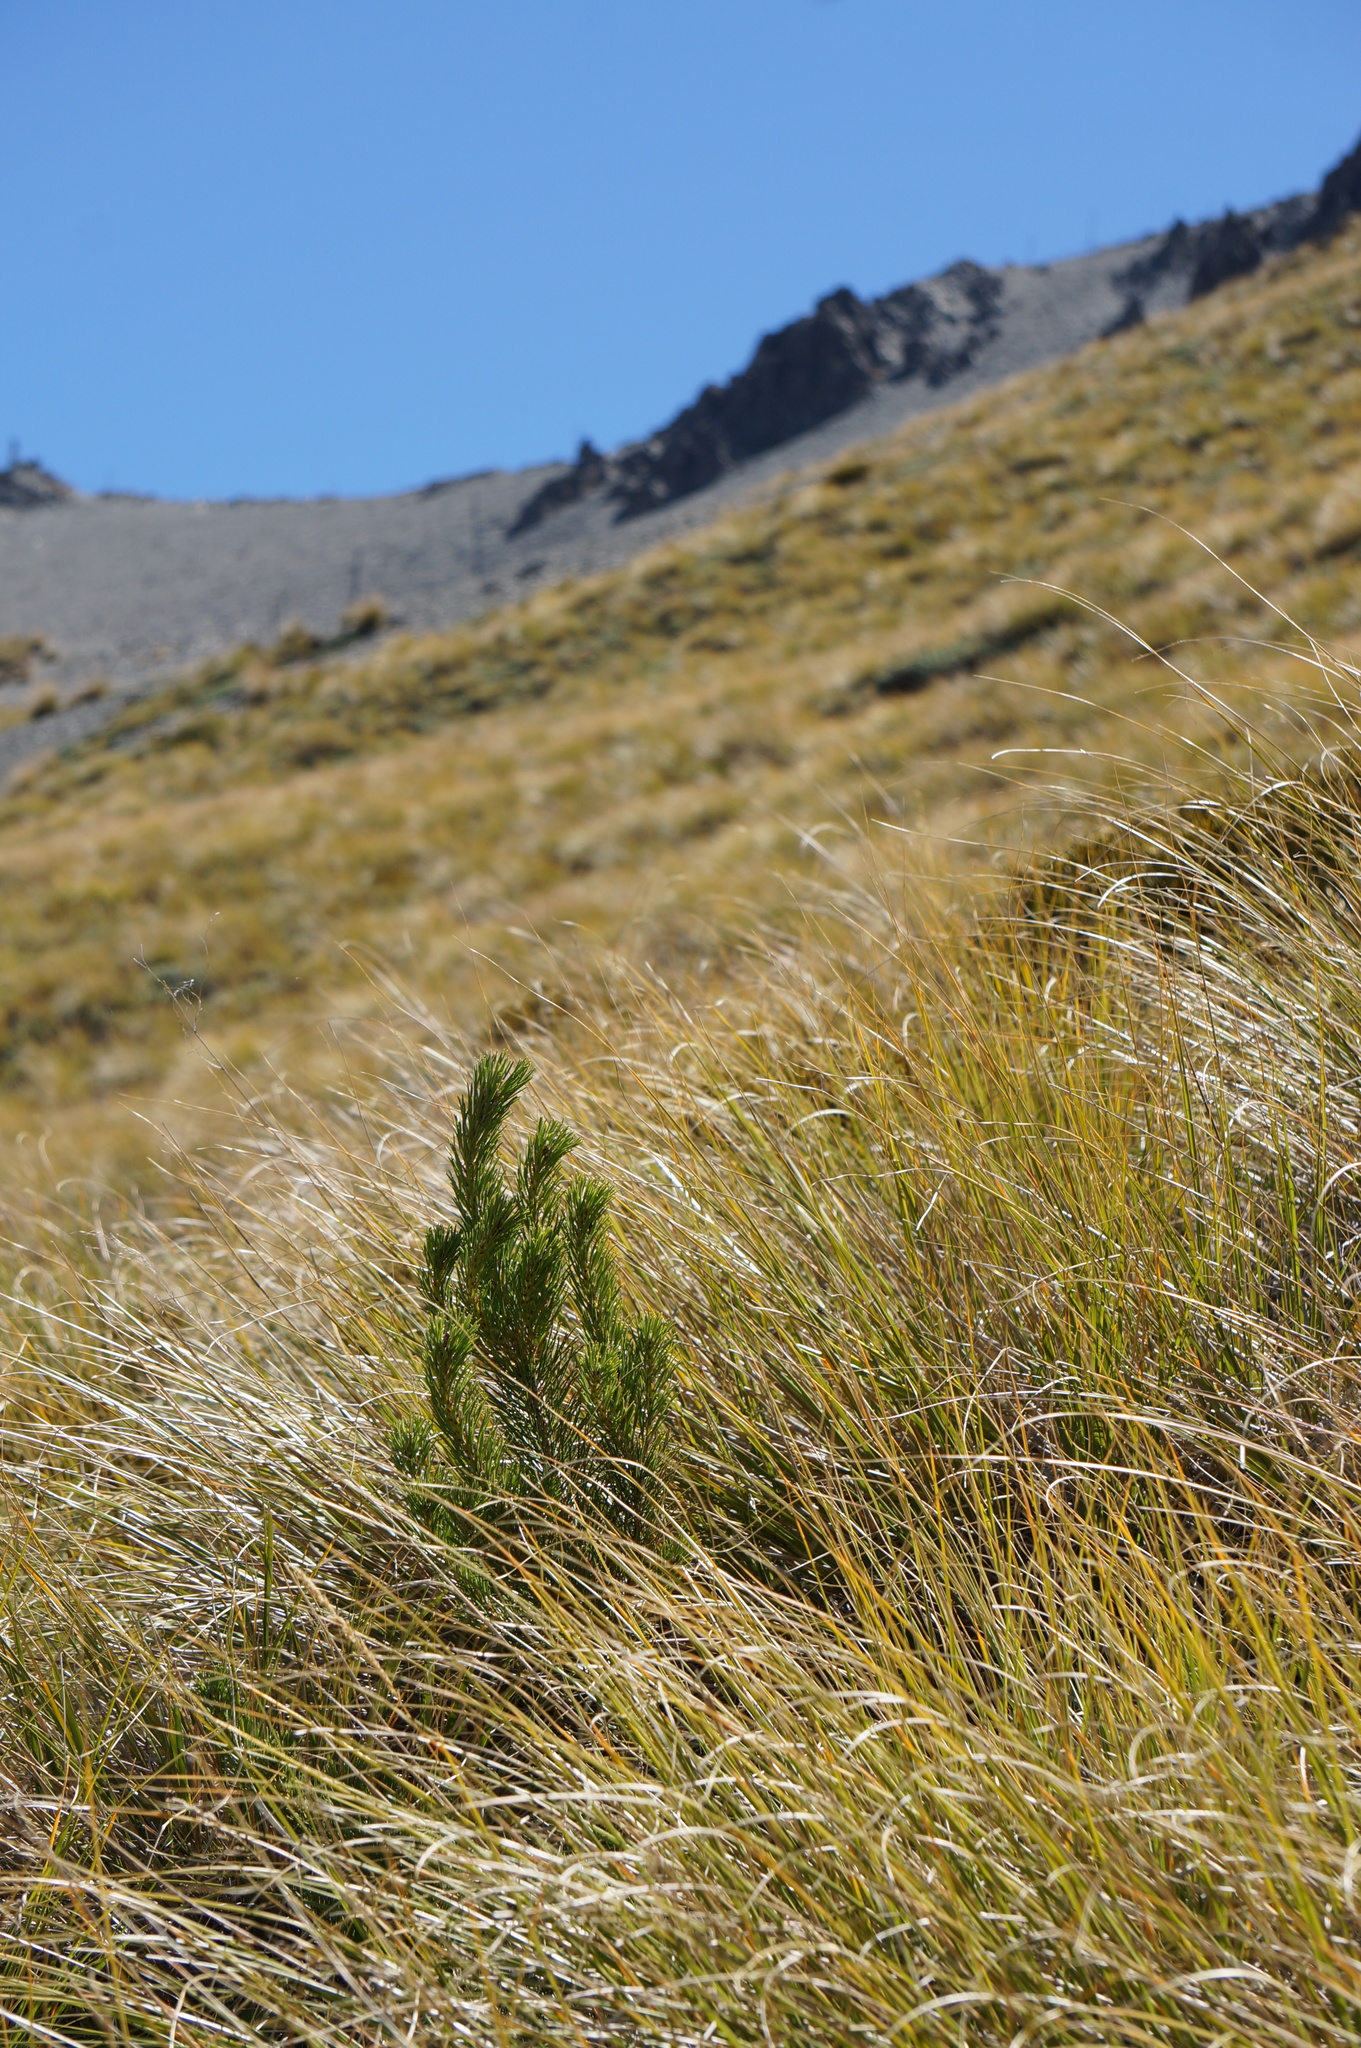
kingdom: Plantae
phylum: Tracheophyta
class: Pinopsida
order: Pinales
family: Pinaceae
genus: Pinus
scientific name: Pinus contorta
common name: Lodgepole pine
